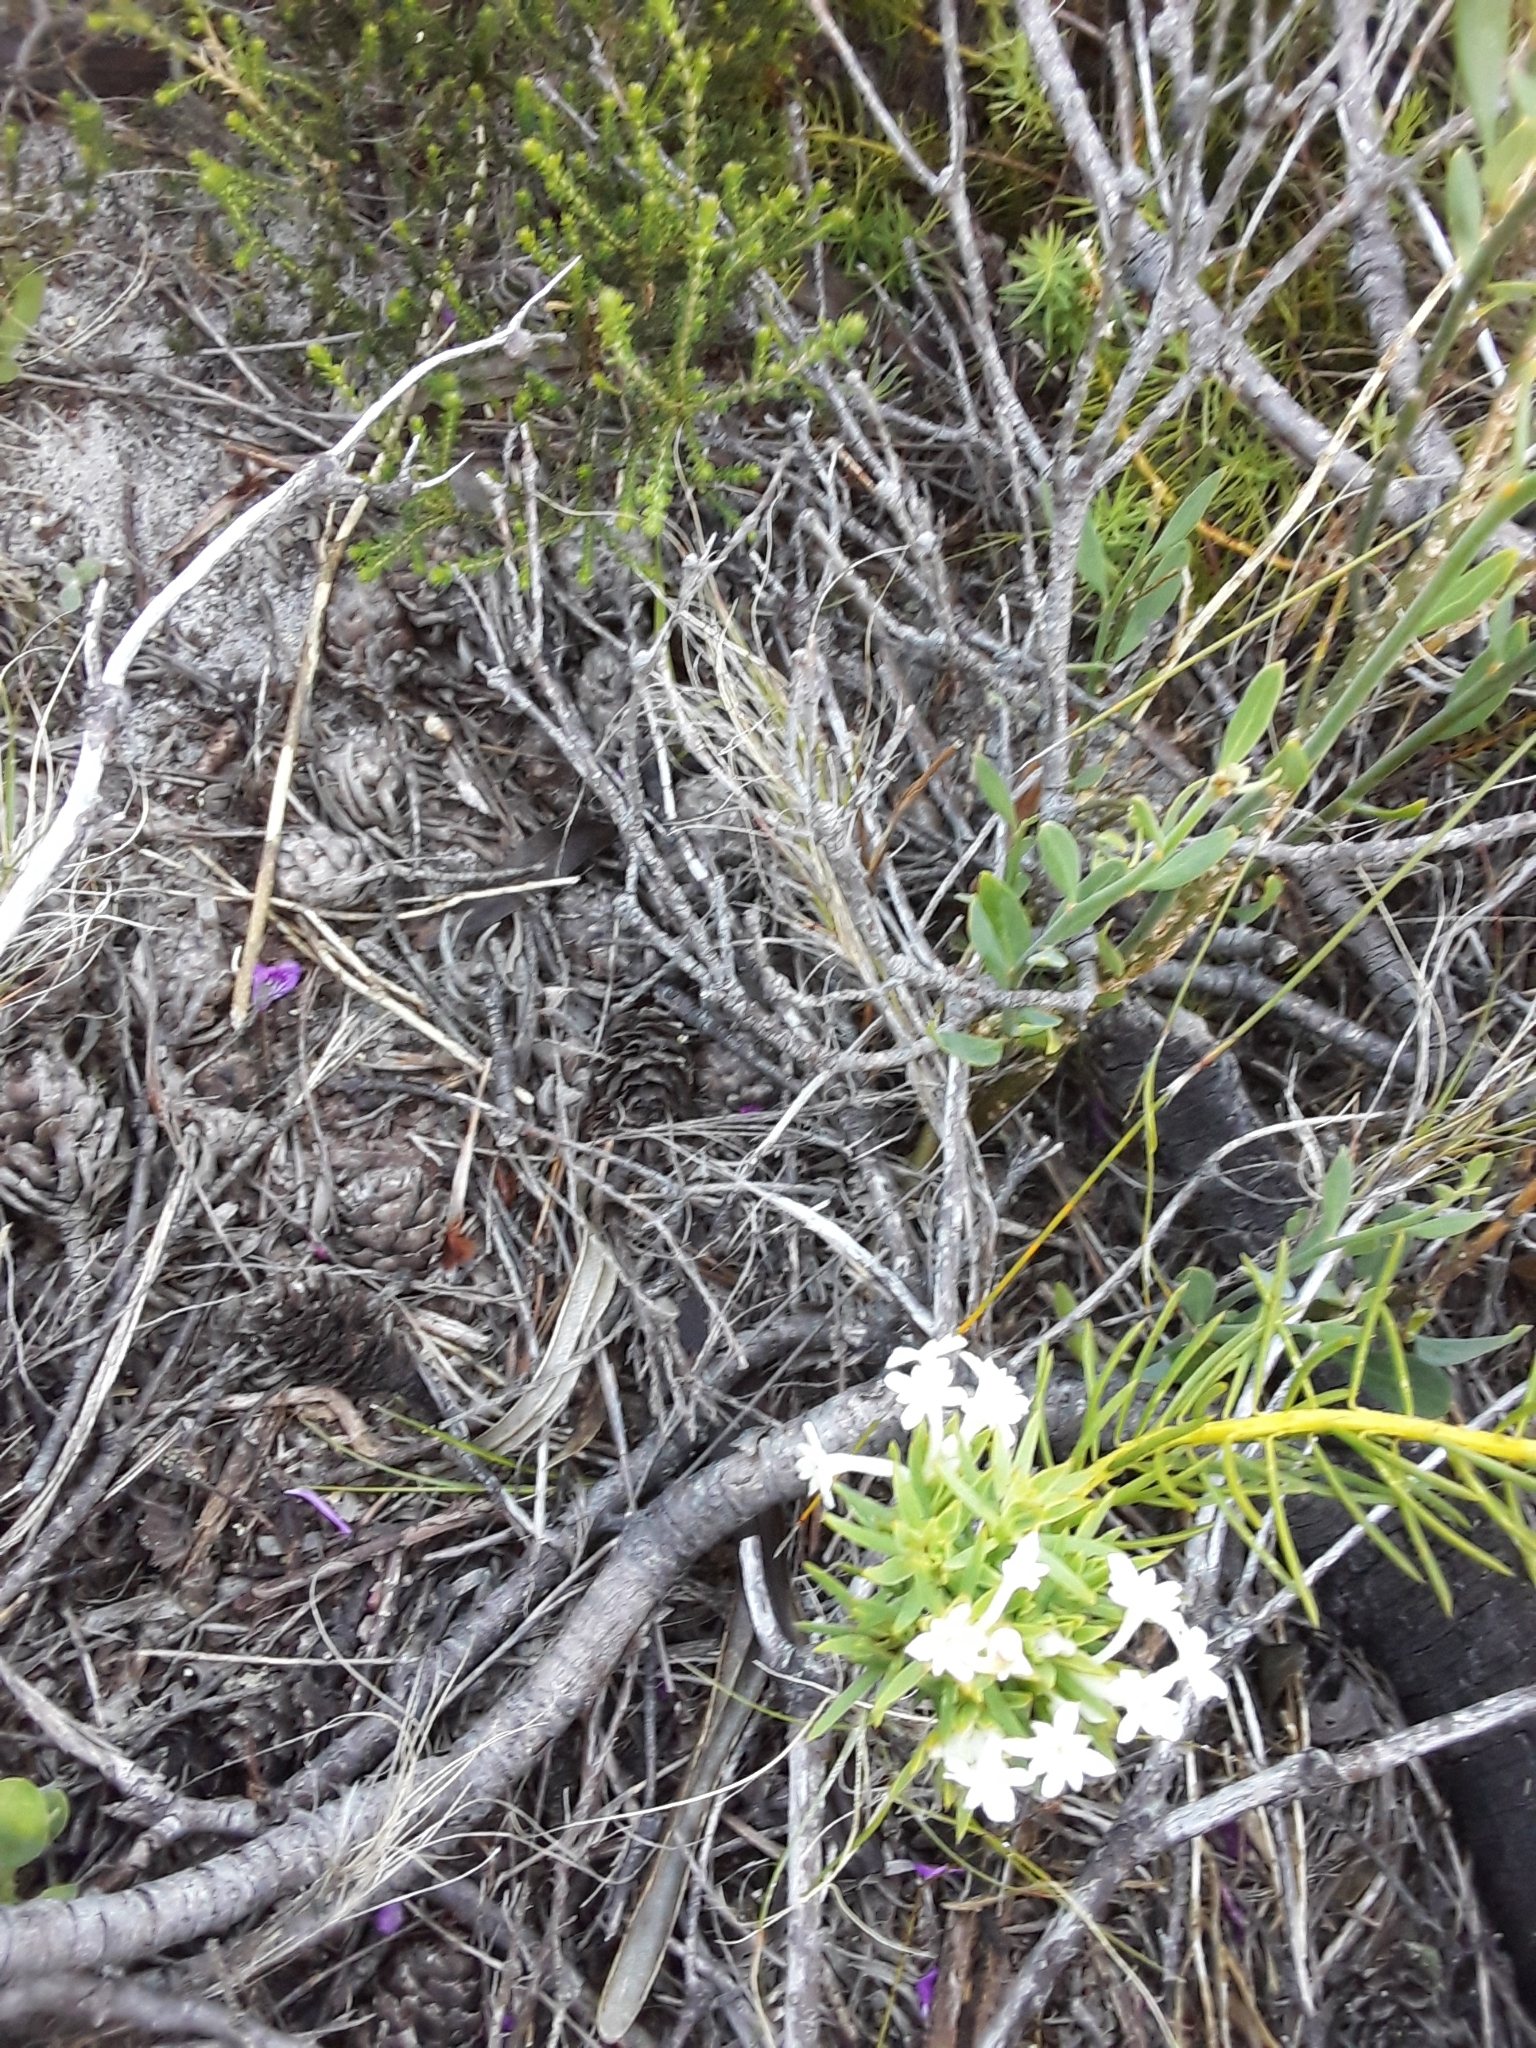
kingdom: Plantae
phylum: Tracheophyta
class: Magnoliopsida
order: Malvales
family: Thymelaeaceae
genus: Gnidia
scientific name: Gnidia pinifolia
